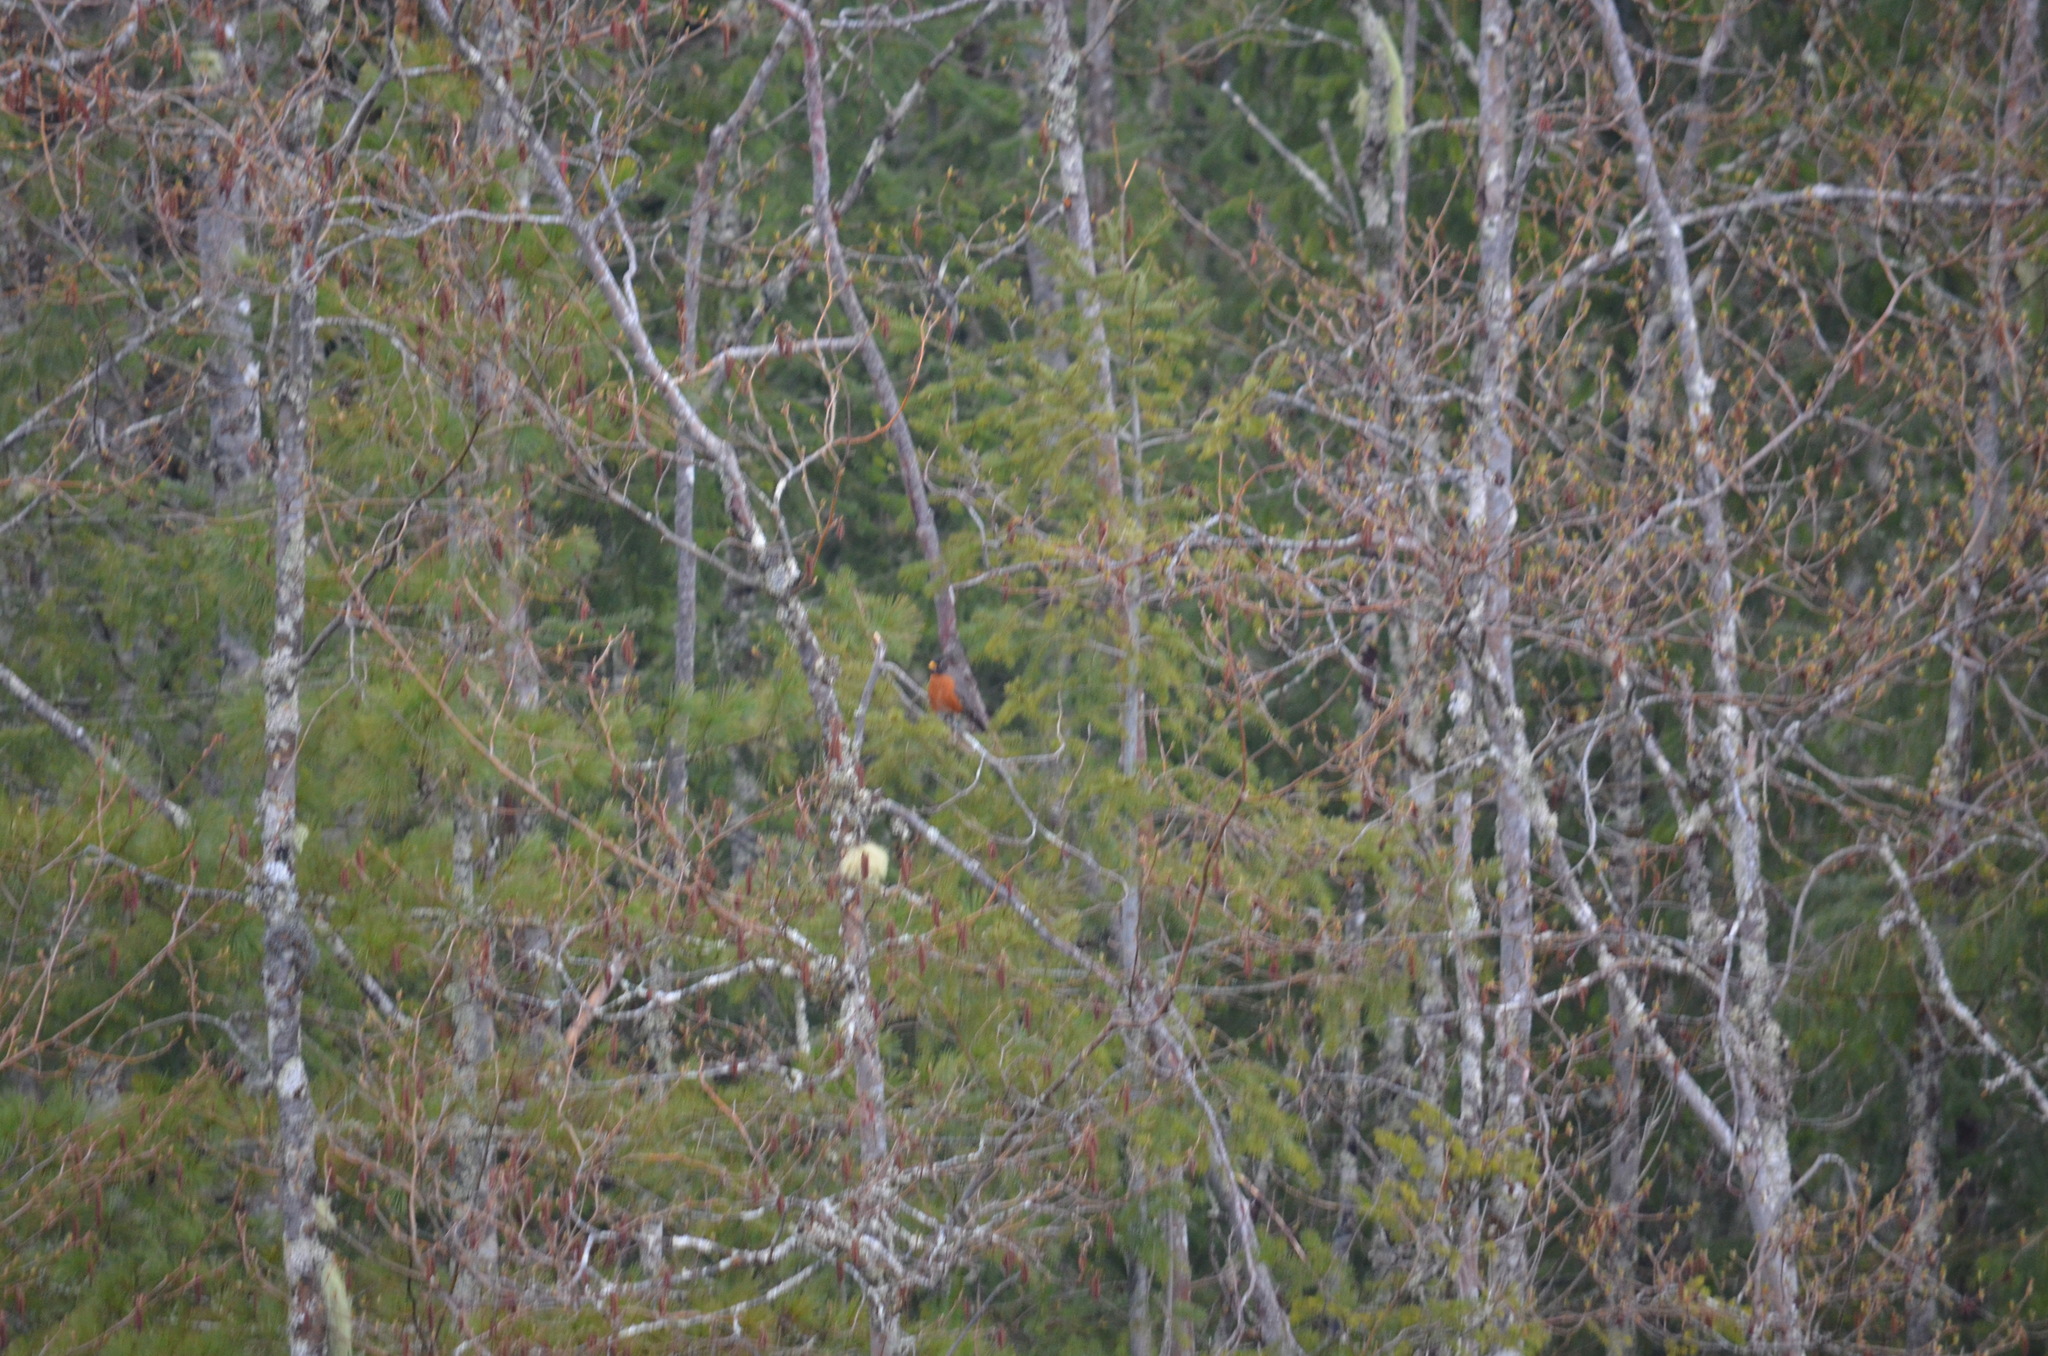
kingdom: Animalia
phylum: Chordata
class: Aves
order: Passeriformes
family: Turdidae
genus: Turdus
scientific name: Turdus migratorius
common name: American robin
